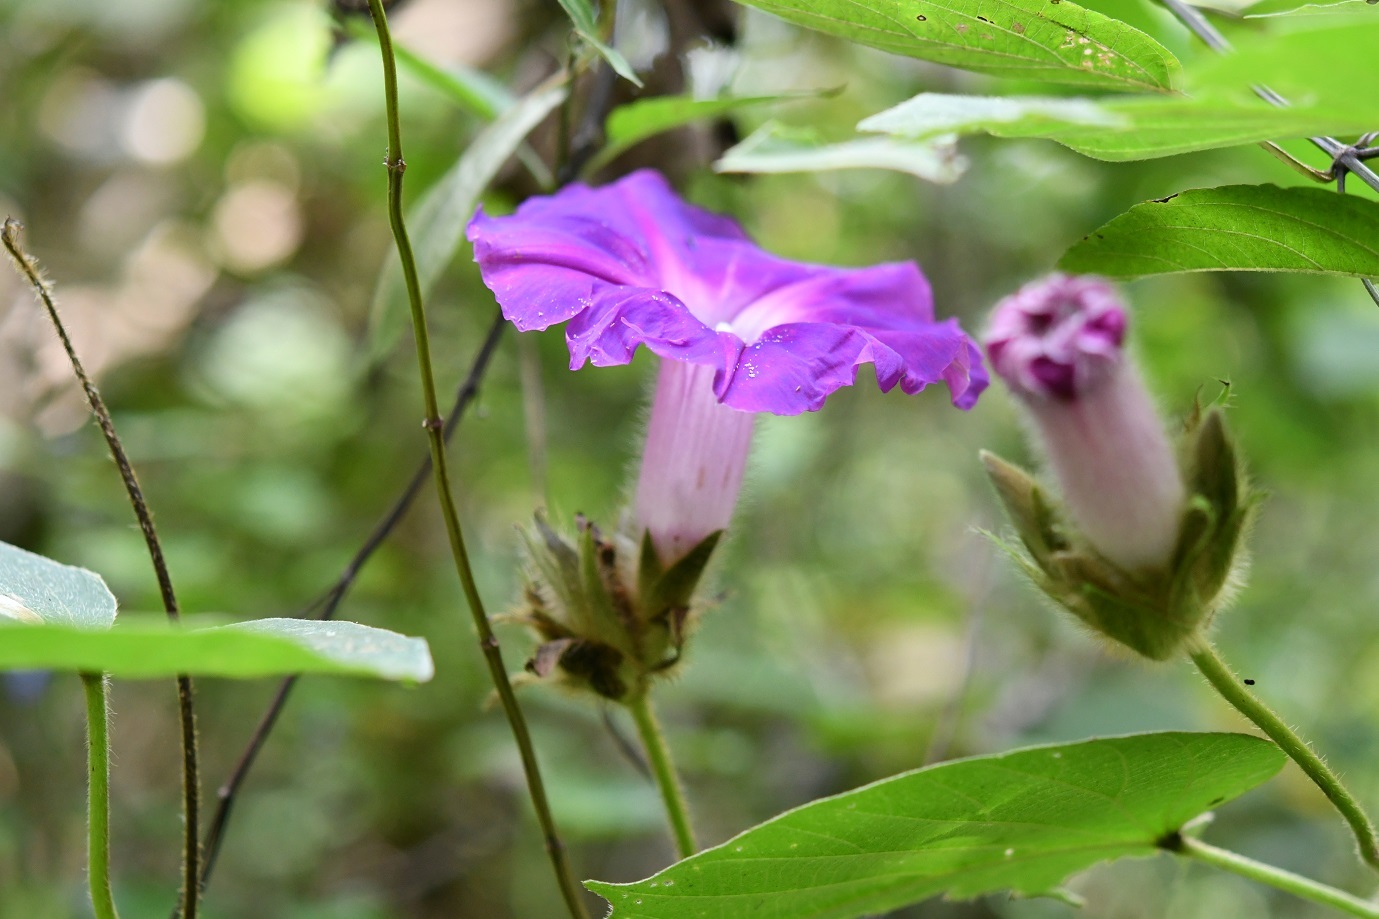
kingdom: Plantae
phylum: Tracheophyta
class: Magnoliopsida
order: Solanales
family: Convolvulaceae
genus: Ipomoea
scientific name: Ipomoea villifera
